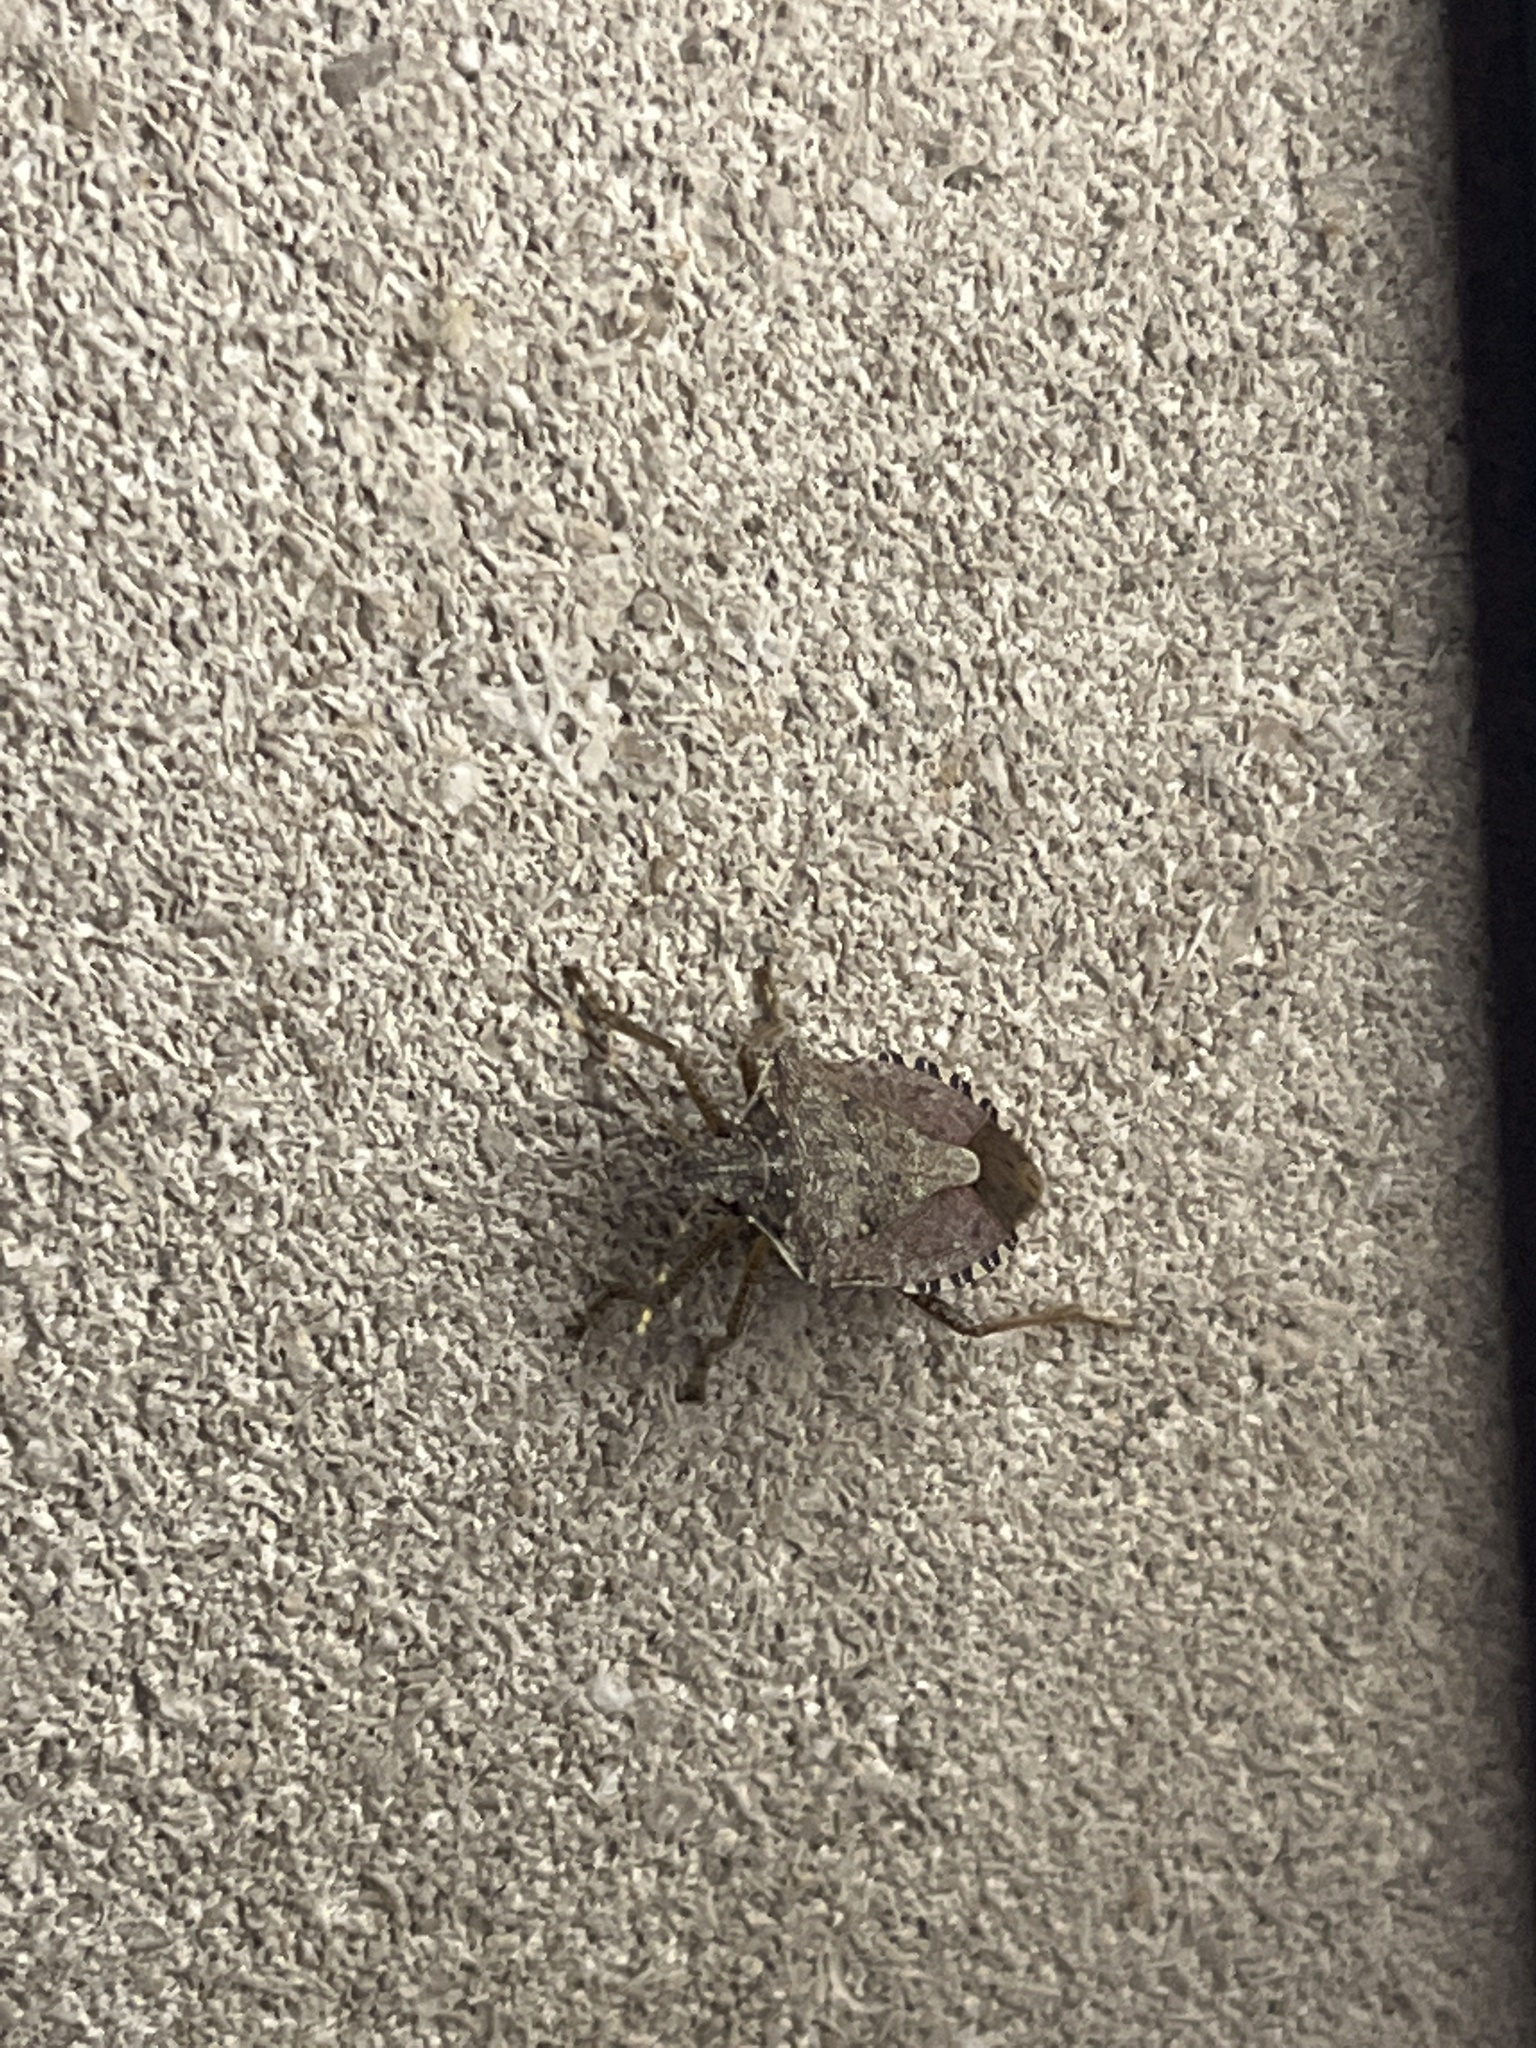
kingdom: Animalia
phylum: Arthropoda
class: Insecta
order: Hemiptera
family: Pentatomidae
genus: Halyomorpha
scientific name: Halyomorpha halys
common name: Brown marmorated stink bug
